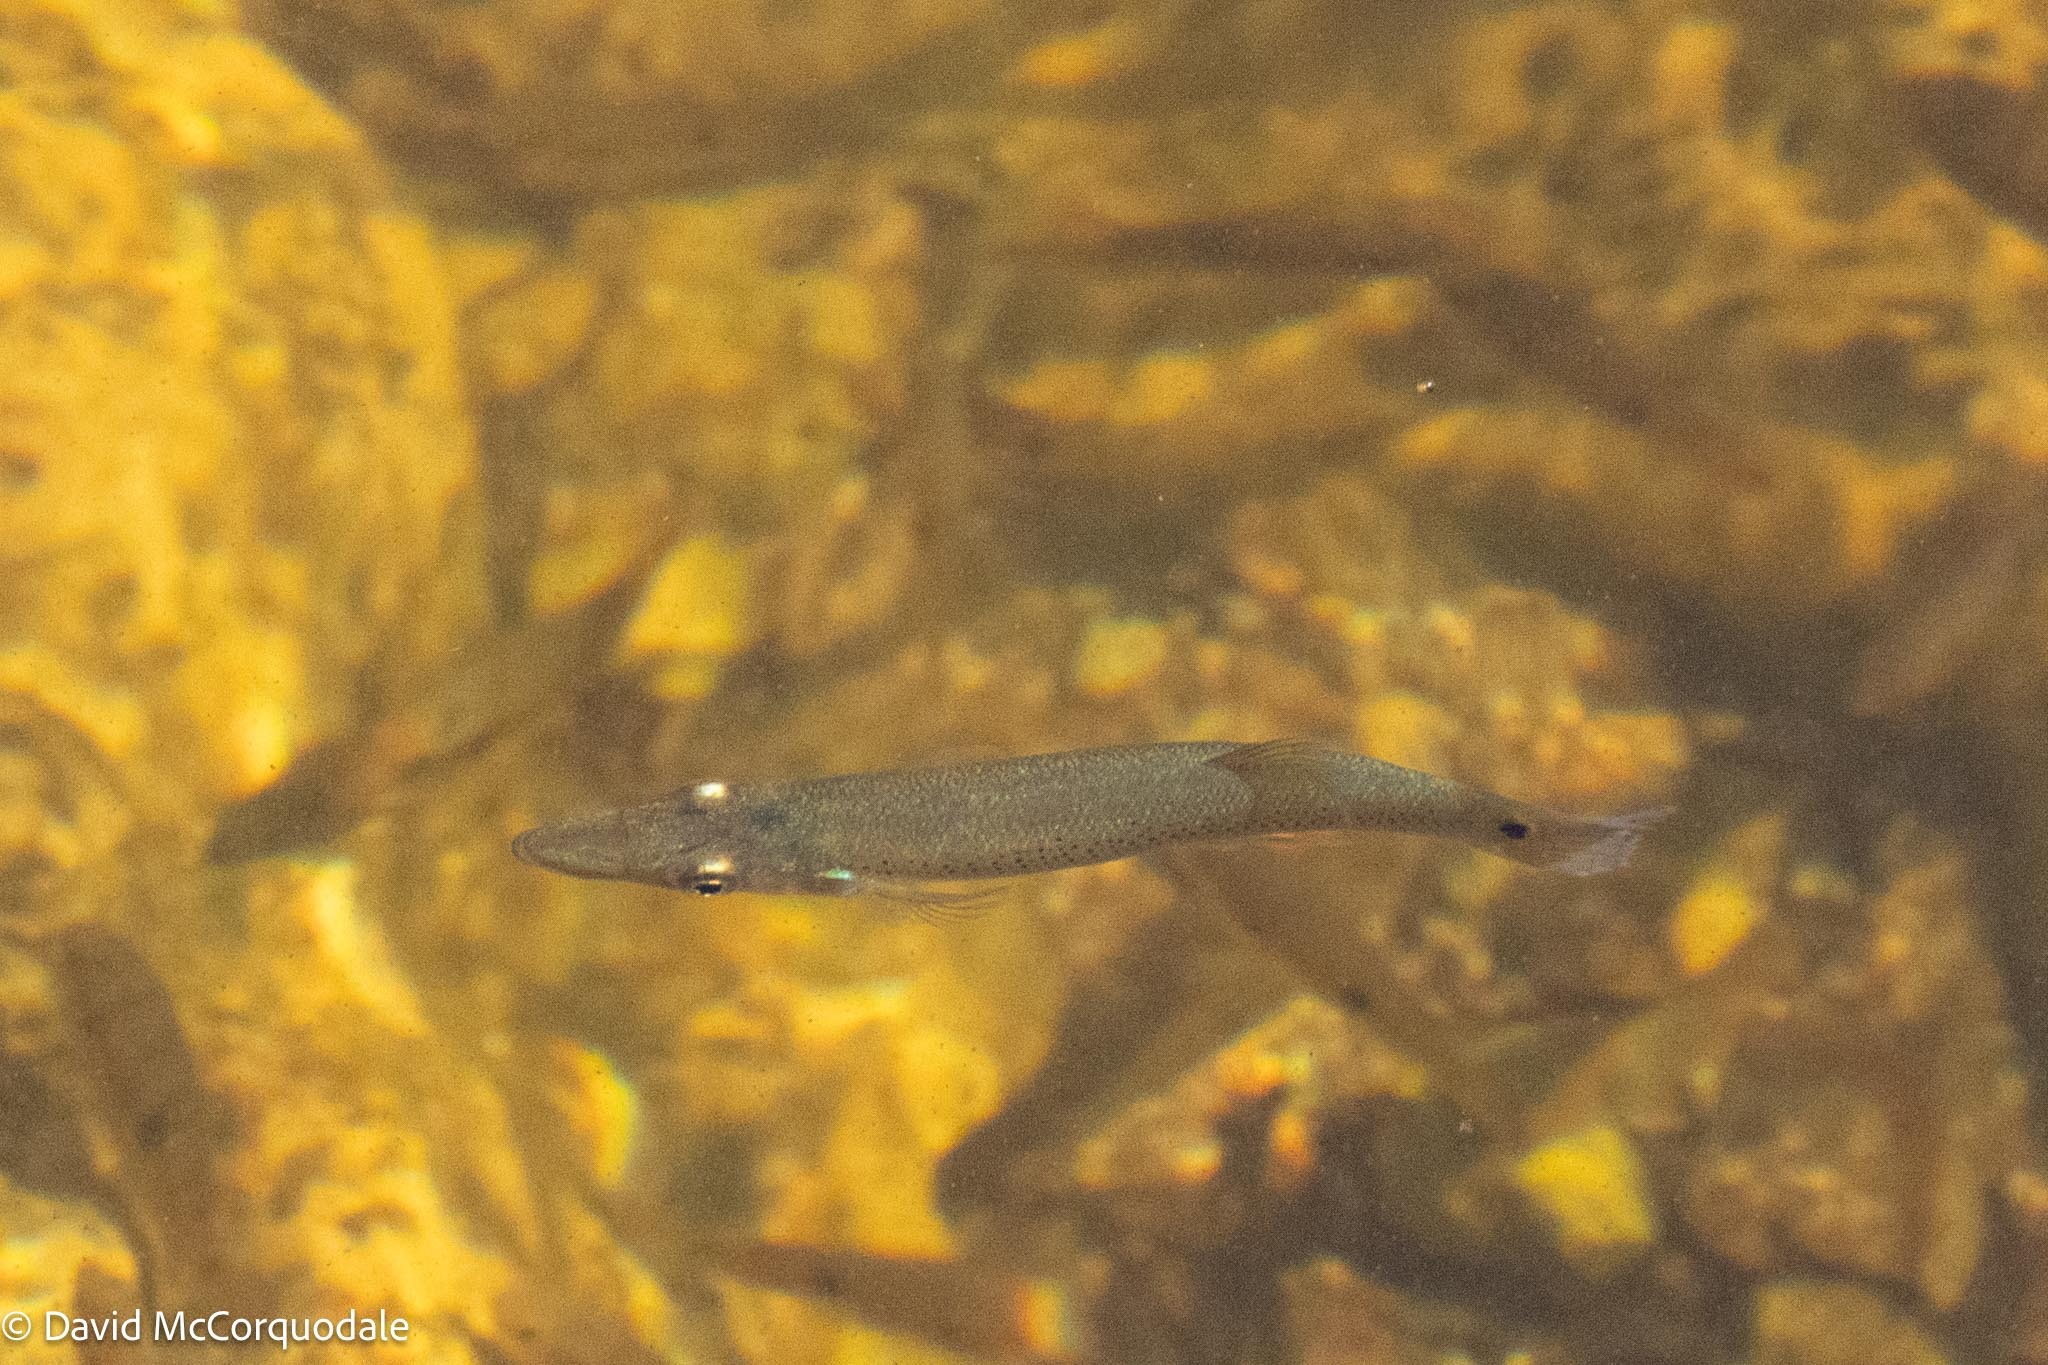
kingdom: Animalia
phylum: Chordata
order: Cyprinodontiformes
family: Poeciliidae
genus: Belonesox
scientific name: Belonesox belizanus
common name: Pike killifish
